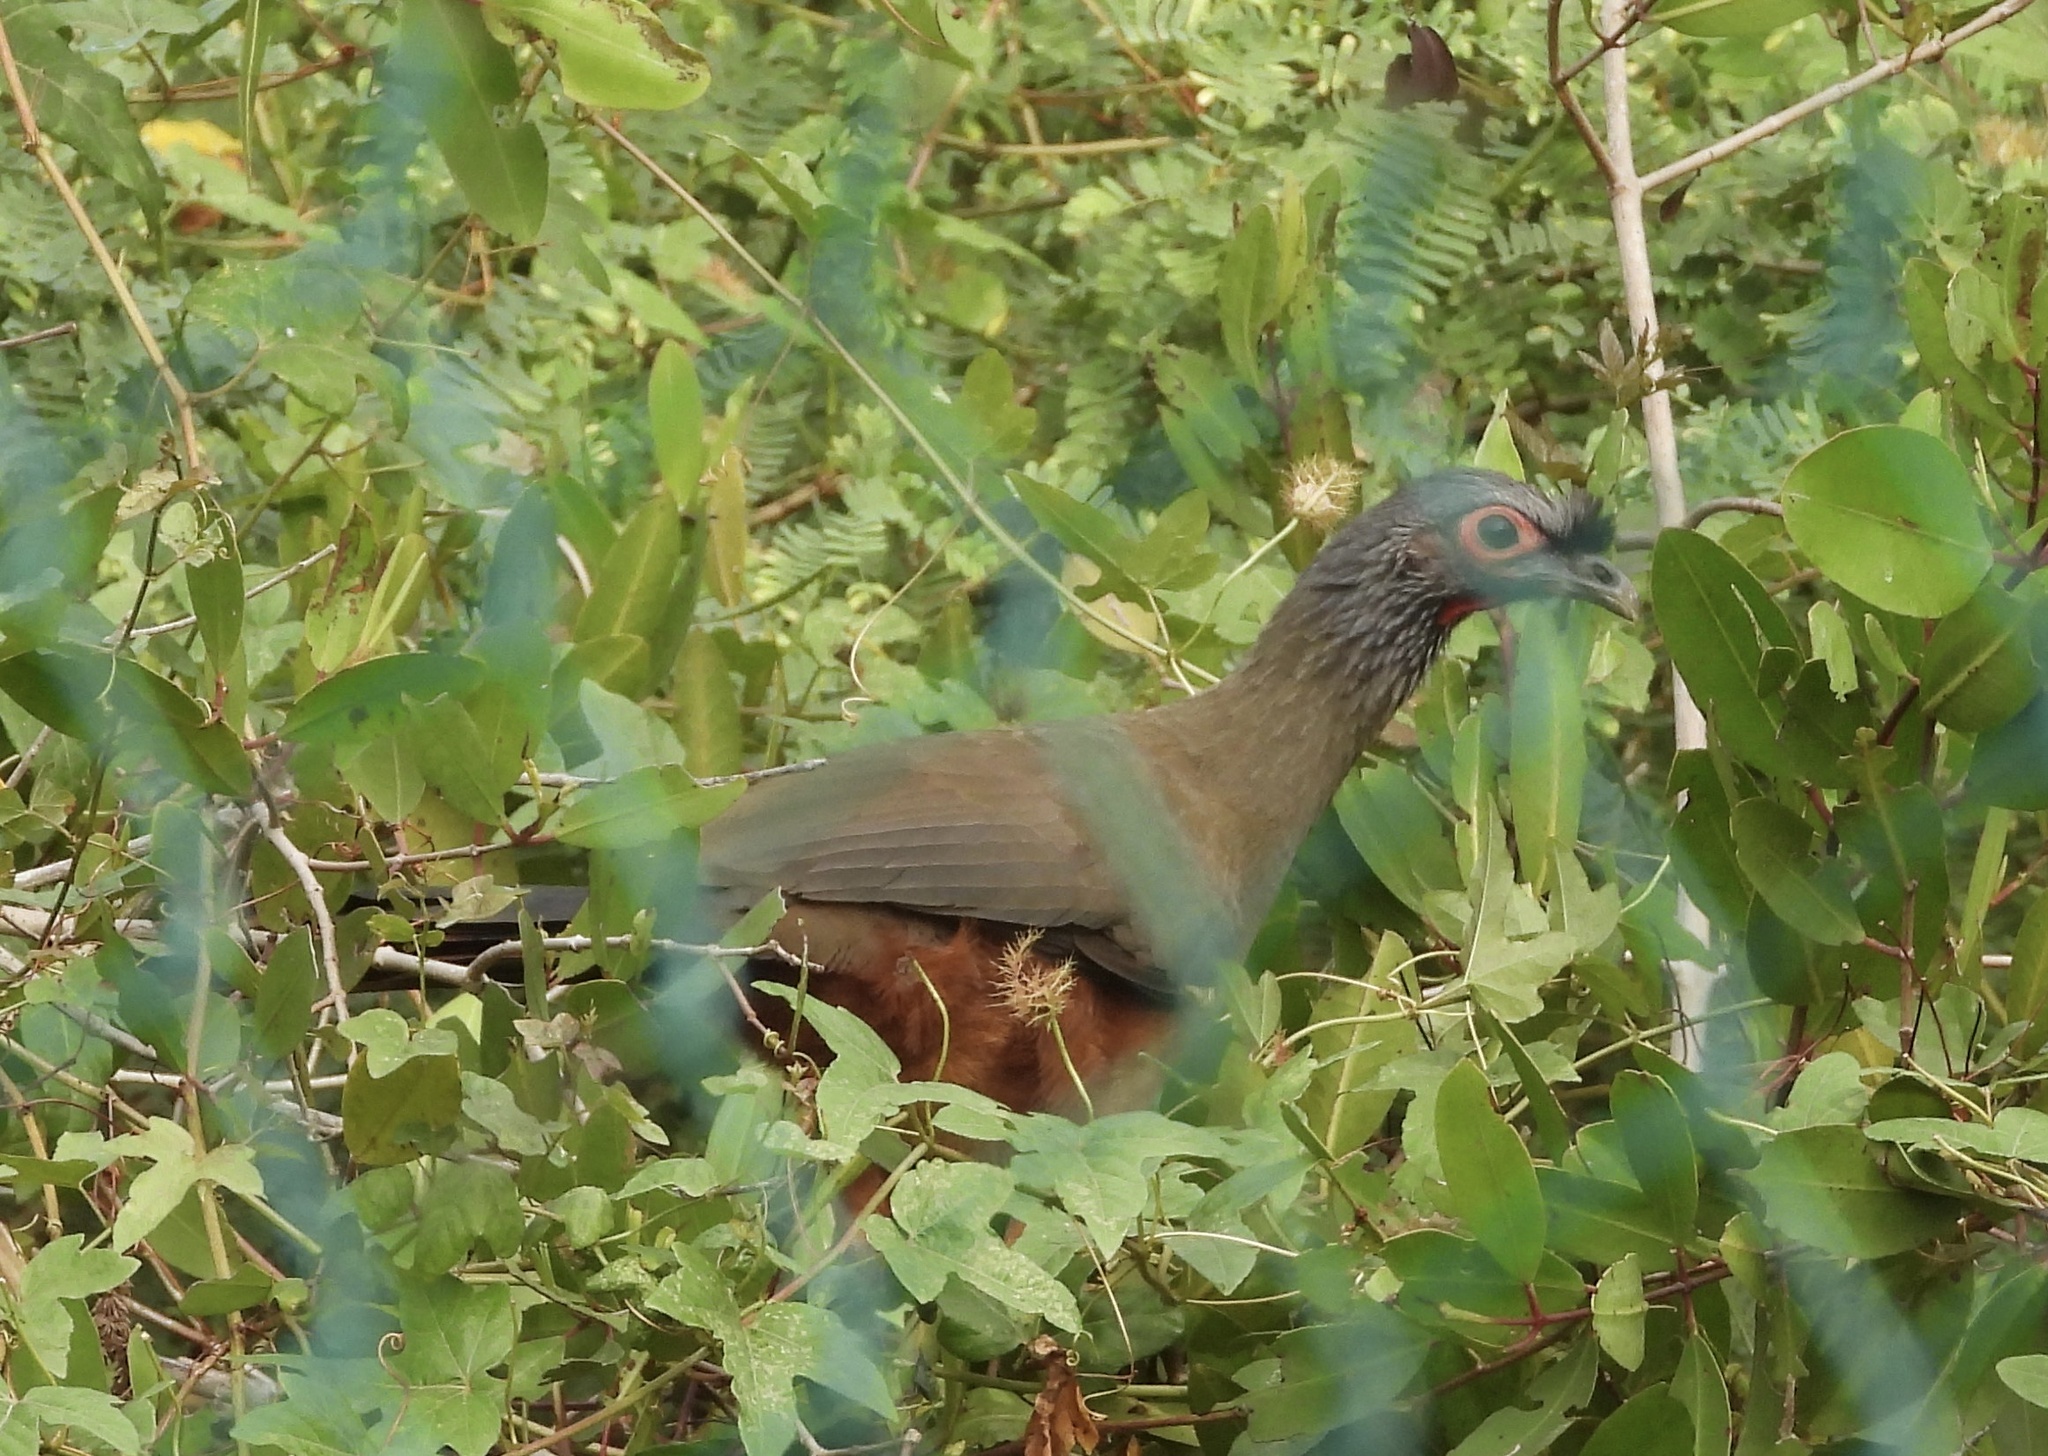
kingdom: Animalia
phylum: Chordata
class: Aves
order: Galliformes
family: Cracidae
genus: Ortalis
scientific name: Ortalis wagleri
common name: Rufous-bellied chachalaca
